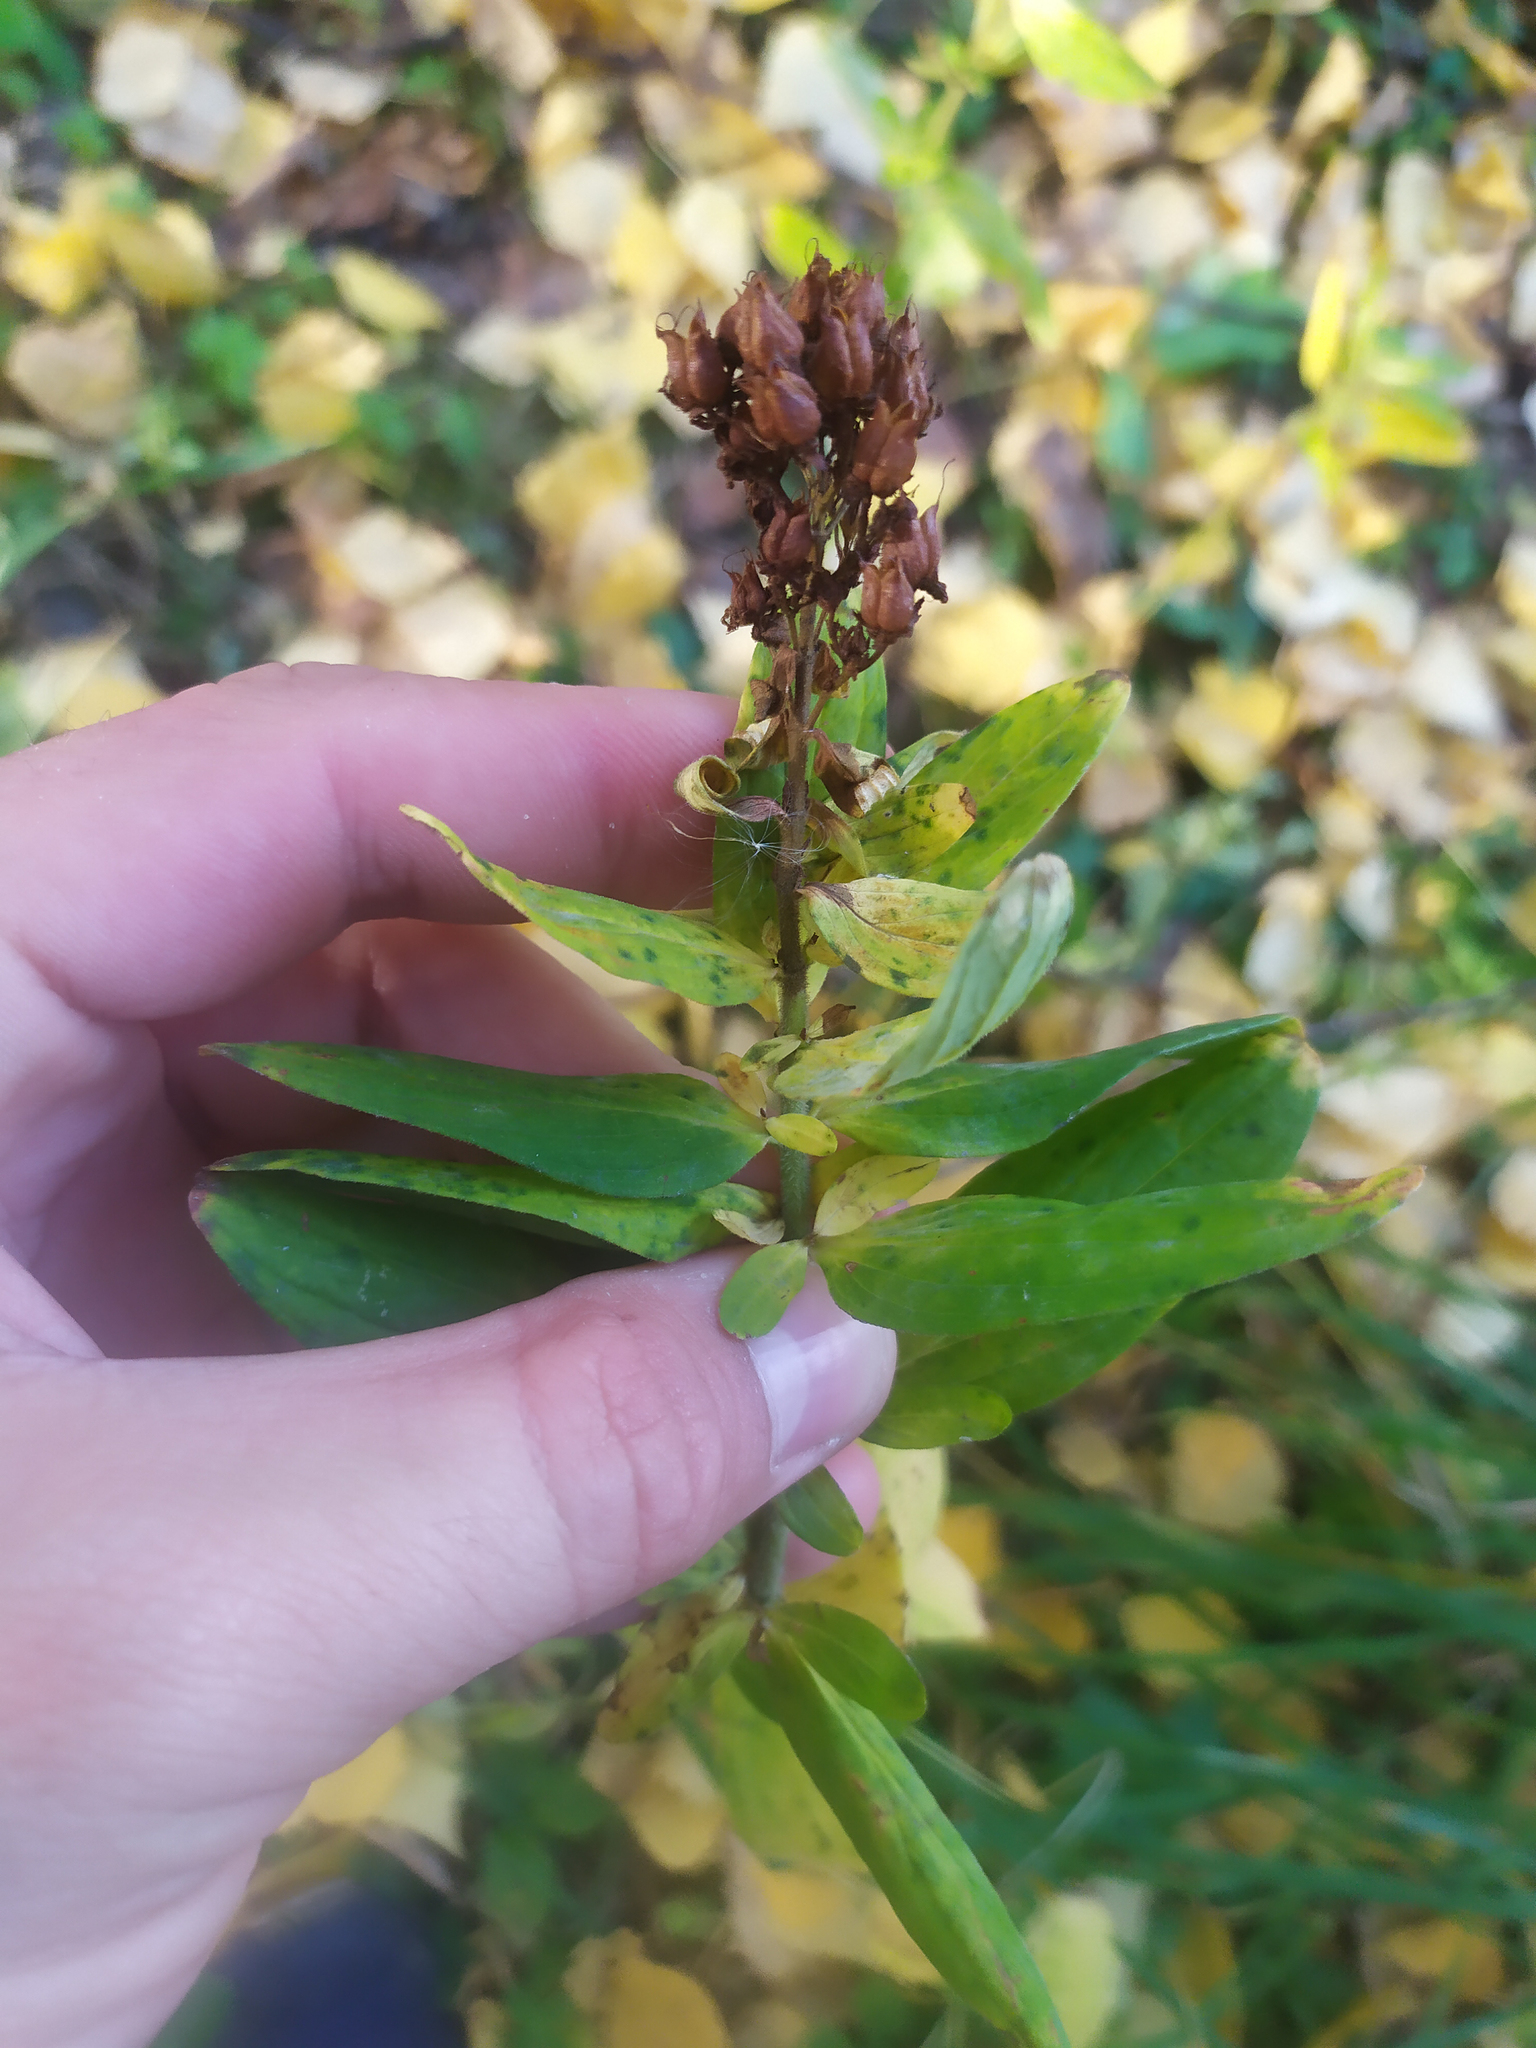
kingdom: Plantae
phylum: Tracheophyta
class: Magnoliopsida
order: Malpighiales
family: Hypericaceae
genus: Hypericum
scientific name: Hypericum hirsutum
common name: Hairy st. john's-wort
